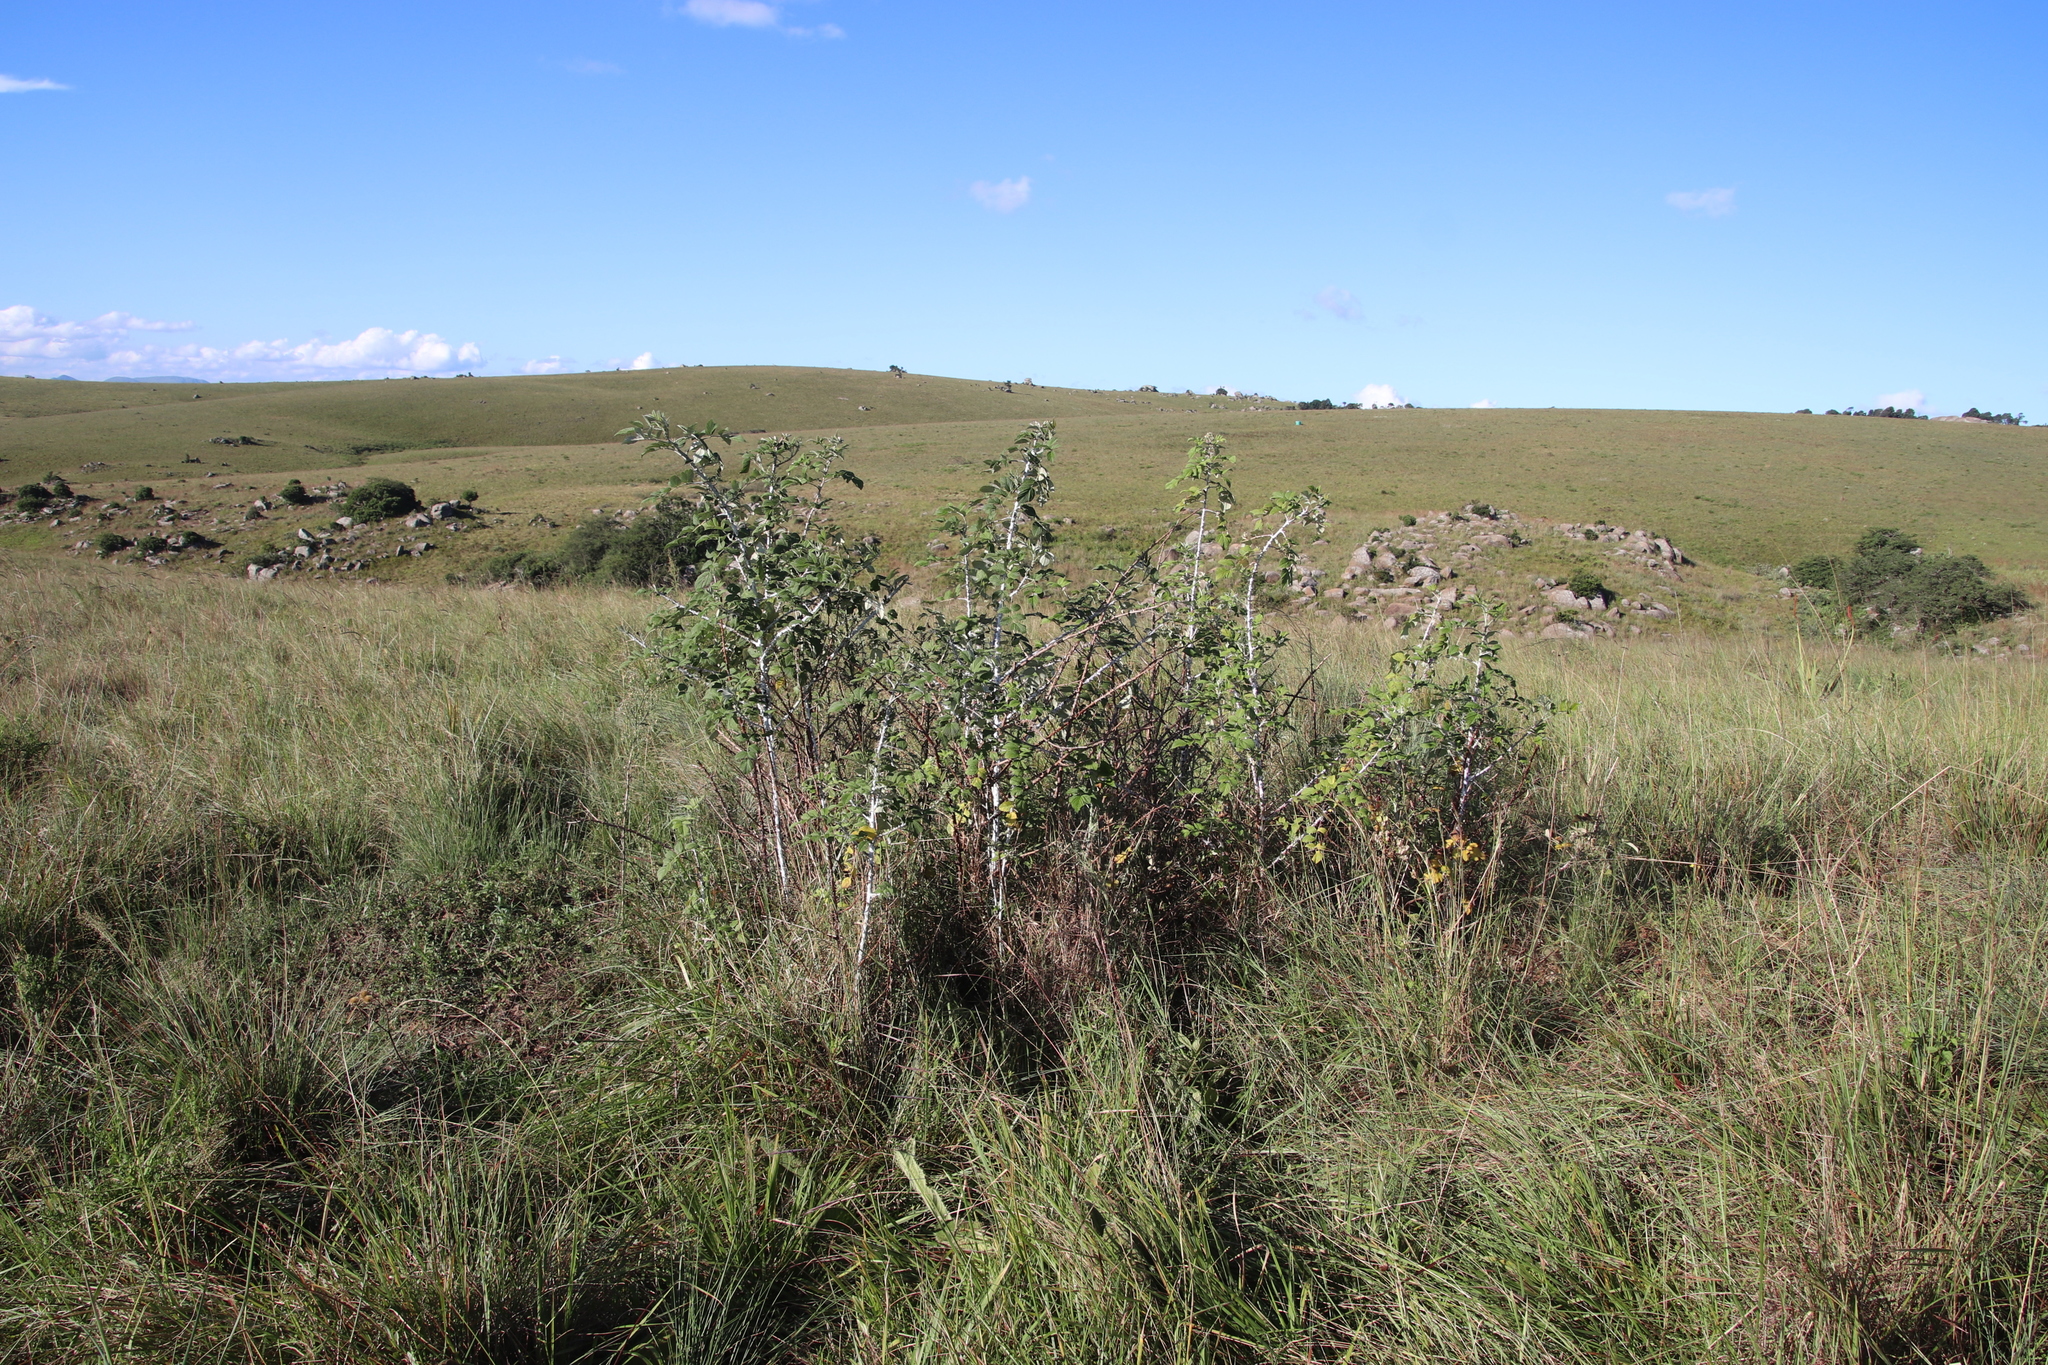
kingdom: Plantae
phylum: Tracheophyta
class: Magnoliopsida
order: Rosales
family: Rosaceae
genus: Rubus
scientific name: Rubus niveus
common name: Snowpeaks raspberry
